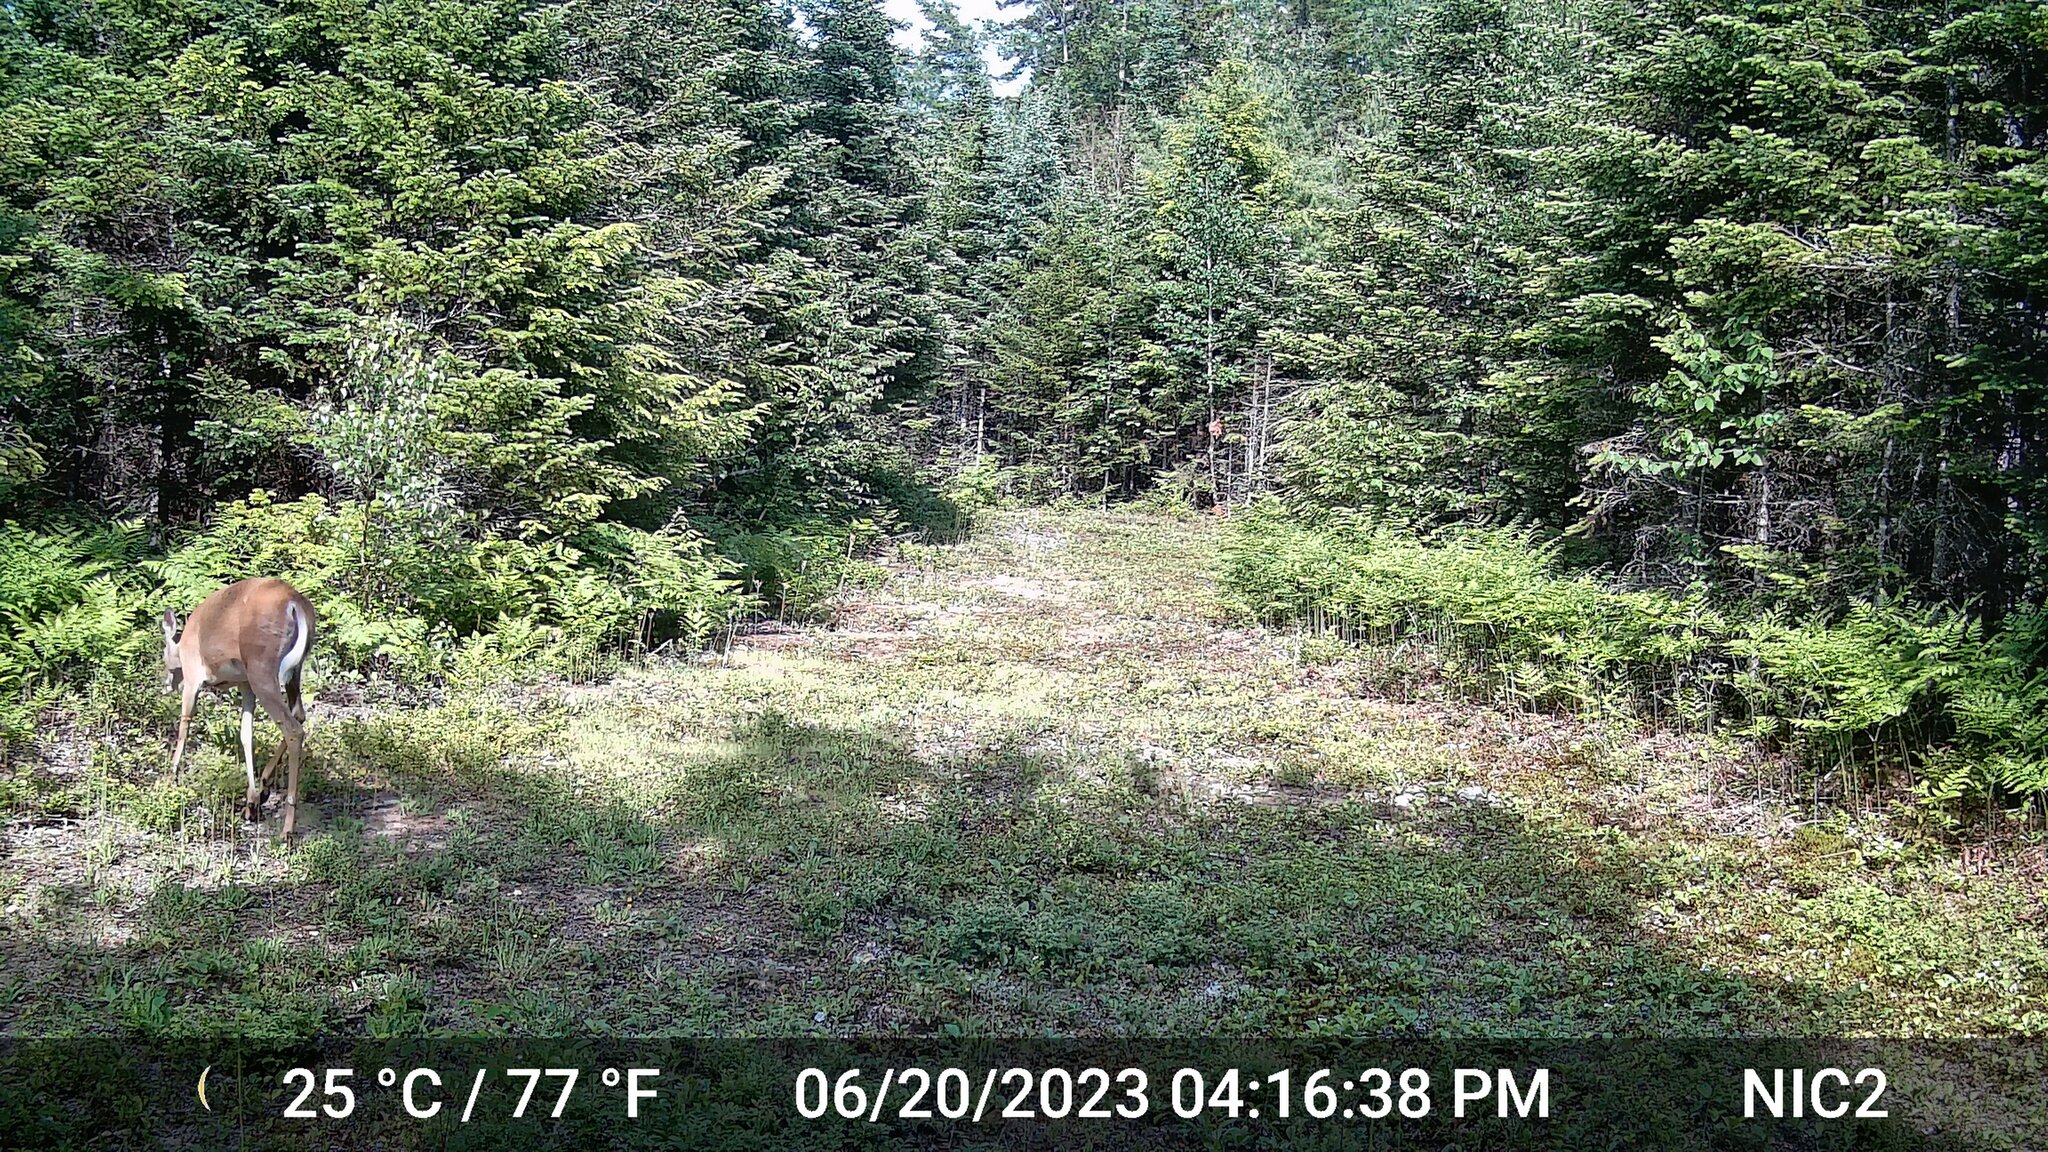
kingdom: Animalia
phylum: Chordata
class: Mammalia
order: Artiodactyla
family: Cervidae
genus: Odocoileus
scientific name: Odocoileus virginianus
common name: White-tailed deer
